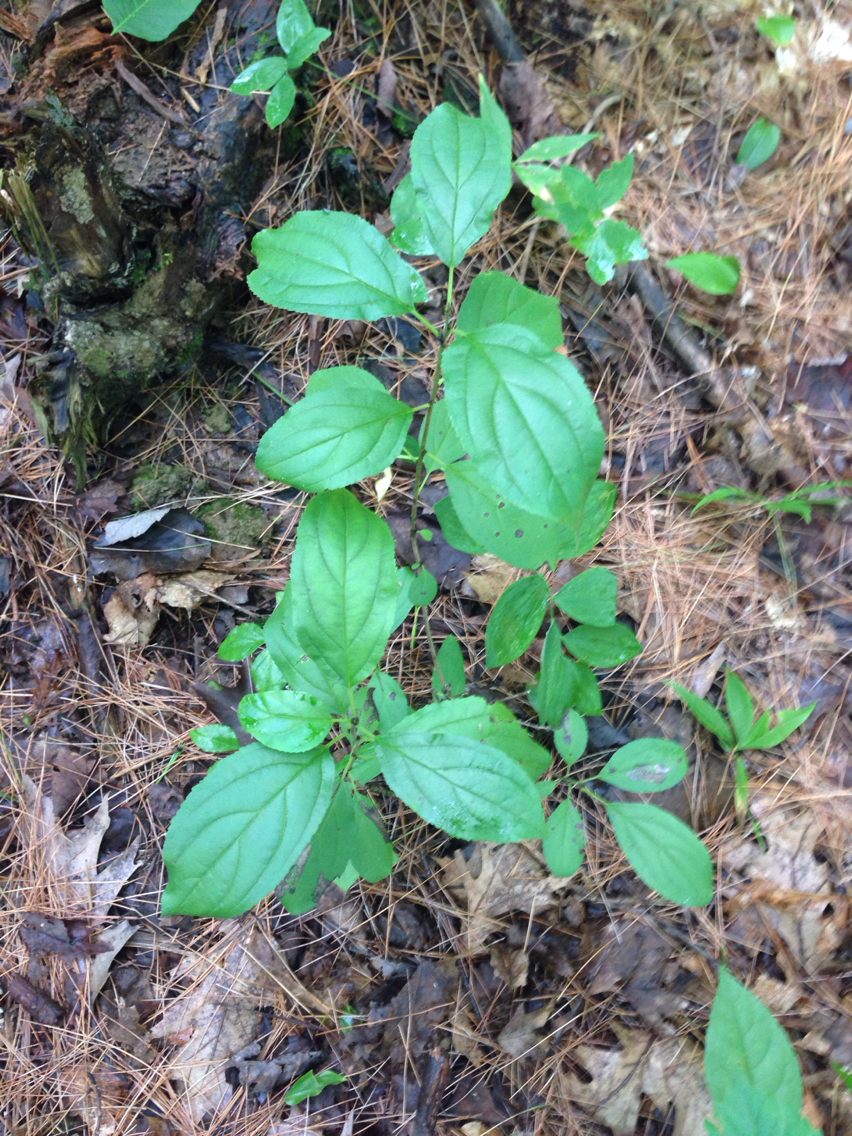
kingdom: Plantae
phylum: Tracheophyta
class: Magnoliopsida
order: Rosales
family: Rhamnaceae
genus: Rhamnus
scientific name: Rhamnus cathartica
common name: Common buckthorn
